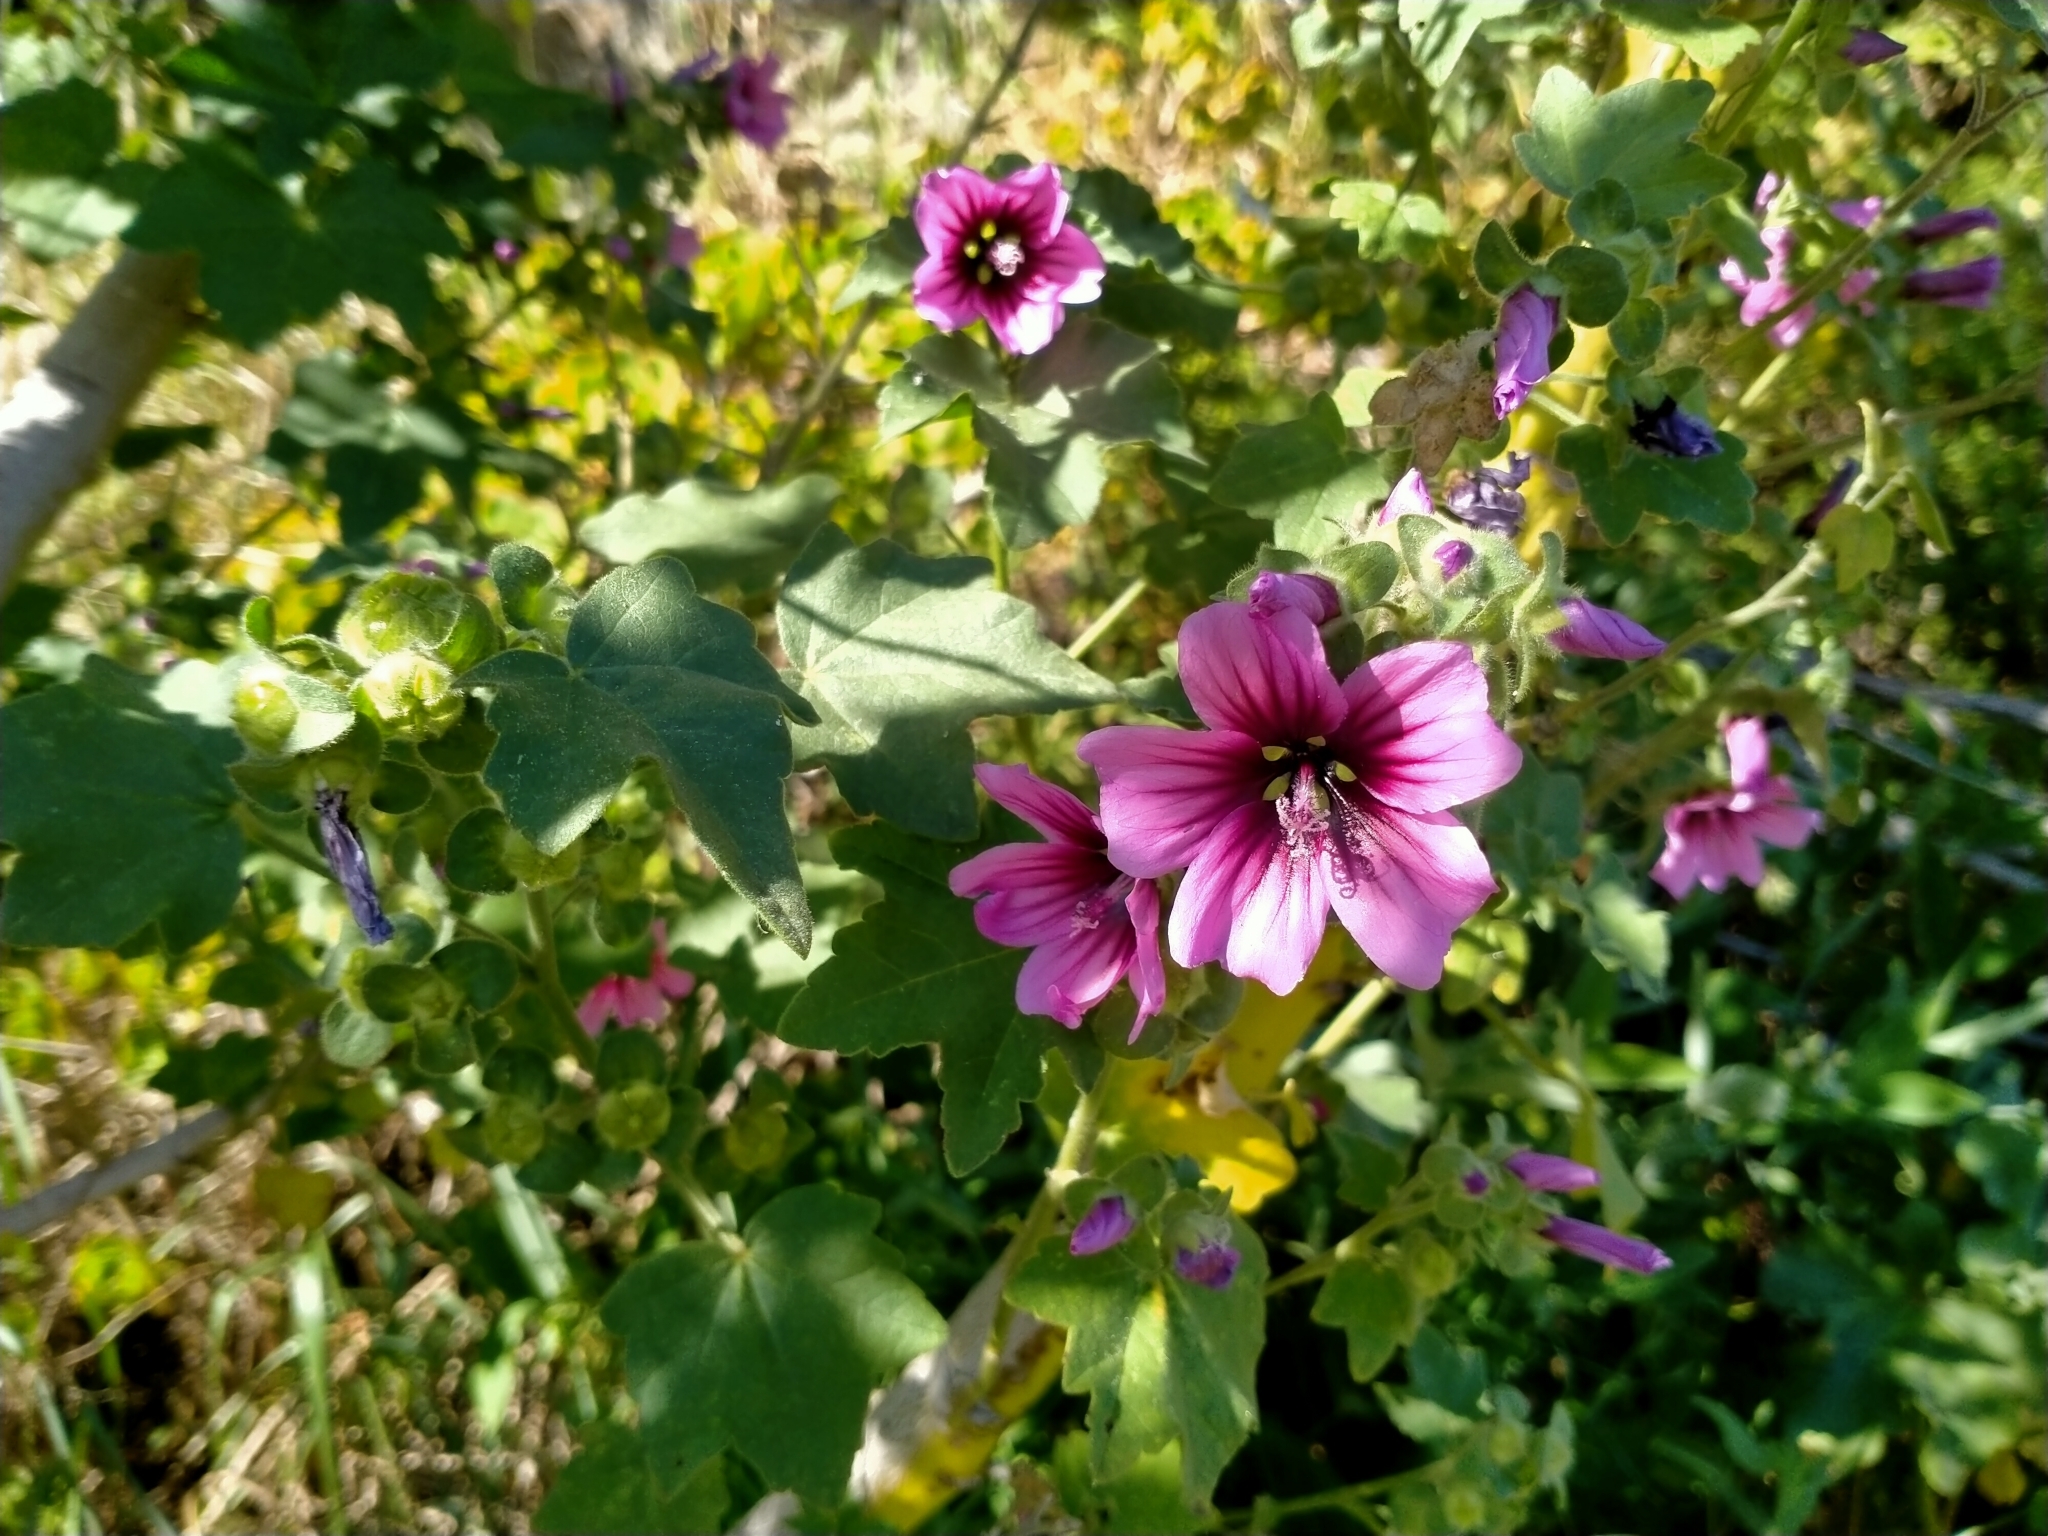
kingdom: Plantae
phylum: Tracheophyta
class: Magnoliopsida
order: Malvales
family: Malvaceae
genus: Malva
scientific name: Malva arborea
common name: Tree mallow
